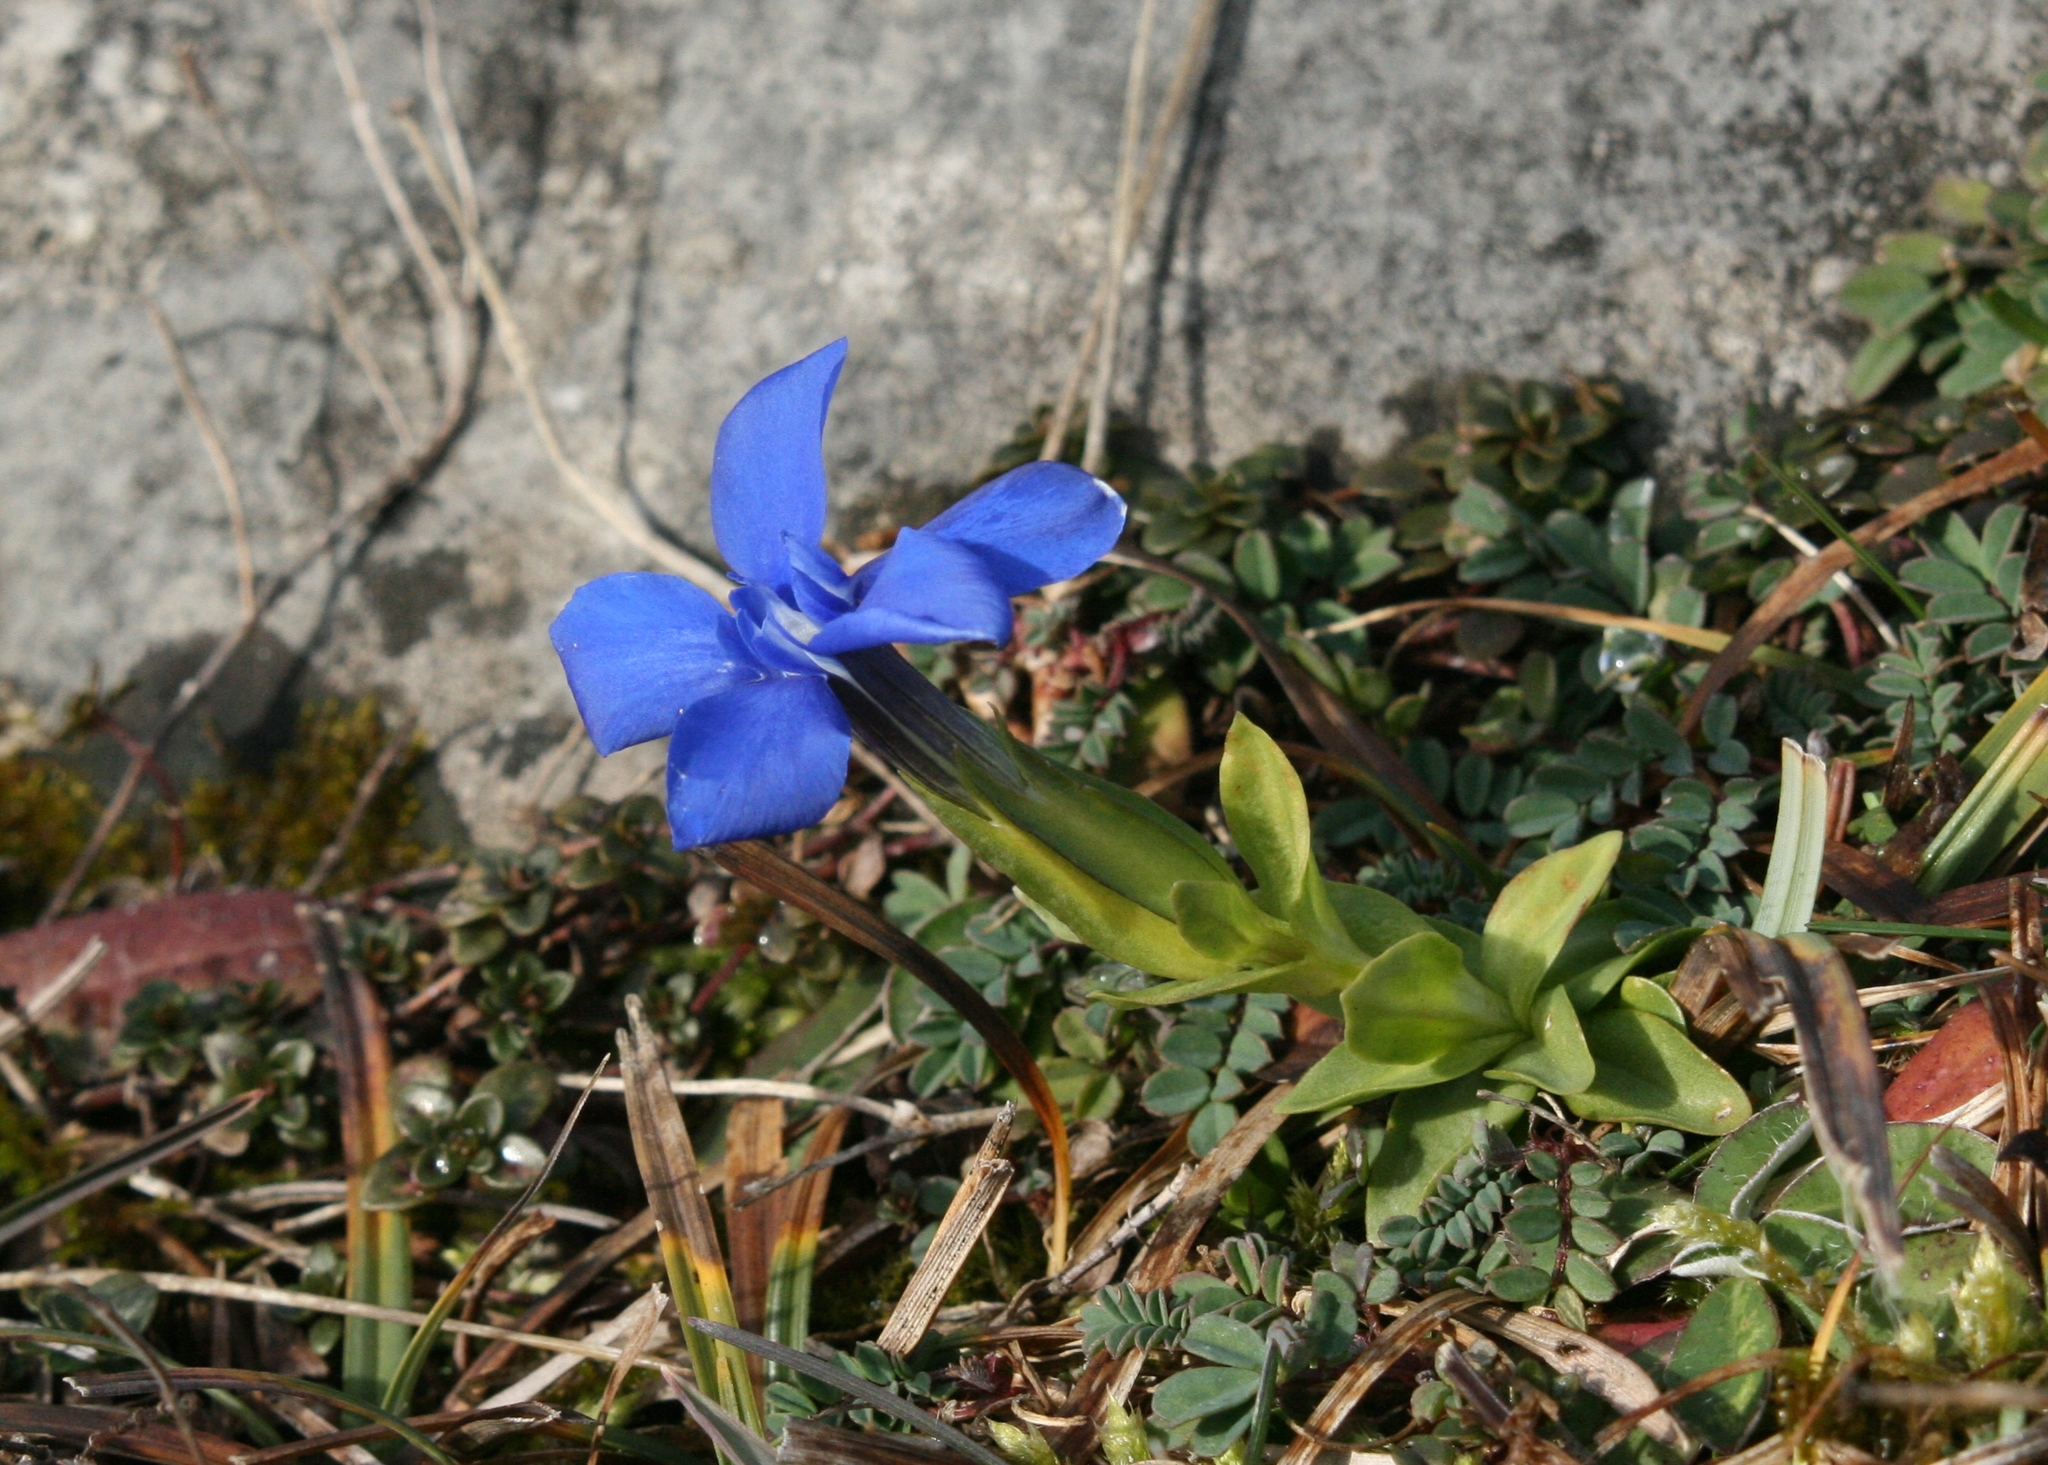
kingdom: Plantae
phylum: Tracheophyta
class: Magnoliopsida
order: Gentianales
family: Gentianaceae
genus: Gentiana
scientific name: Gentiana verna
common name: Spring gentian
